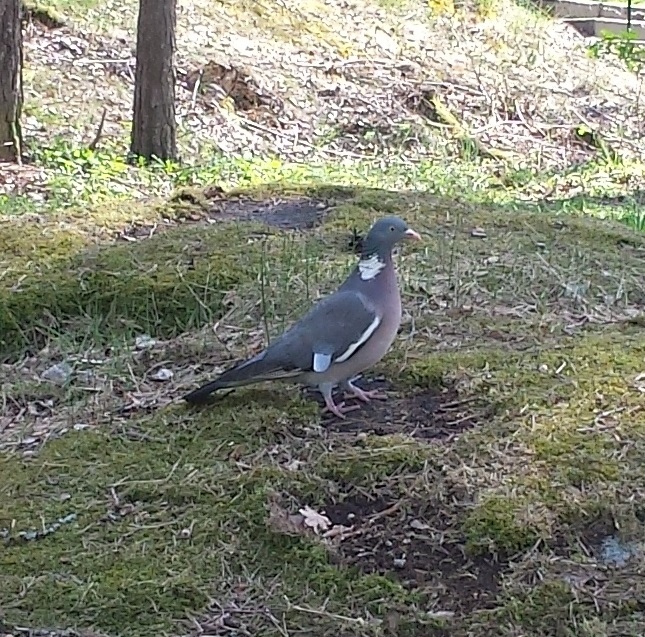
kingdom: Animalia
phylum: Chordata
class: Aves
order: Columbiformes
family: Columbidae
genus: Columba
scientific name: Columba palumbus
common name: Common wood pigeon
